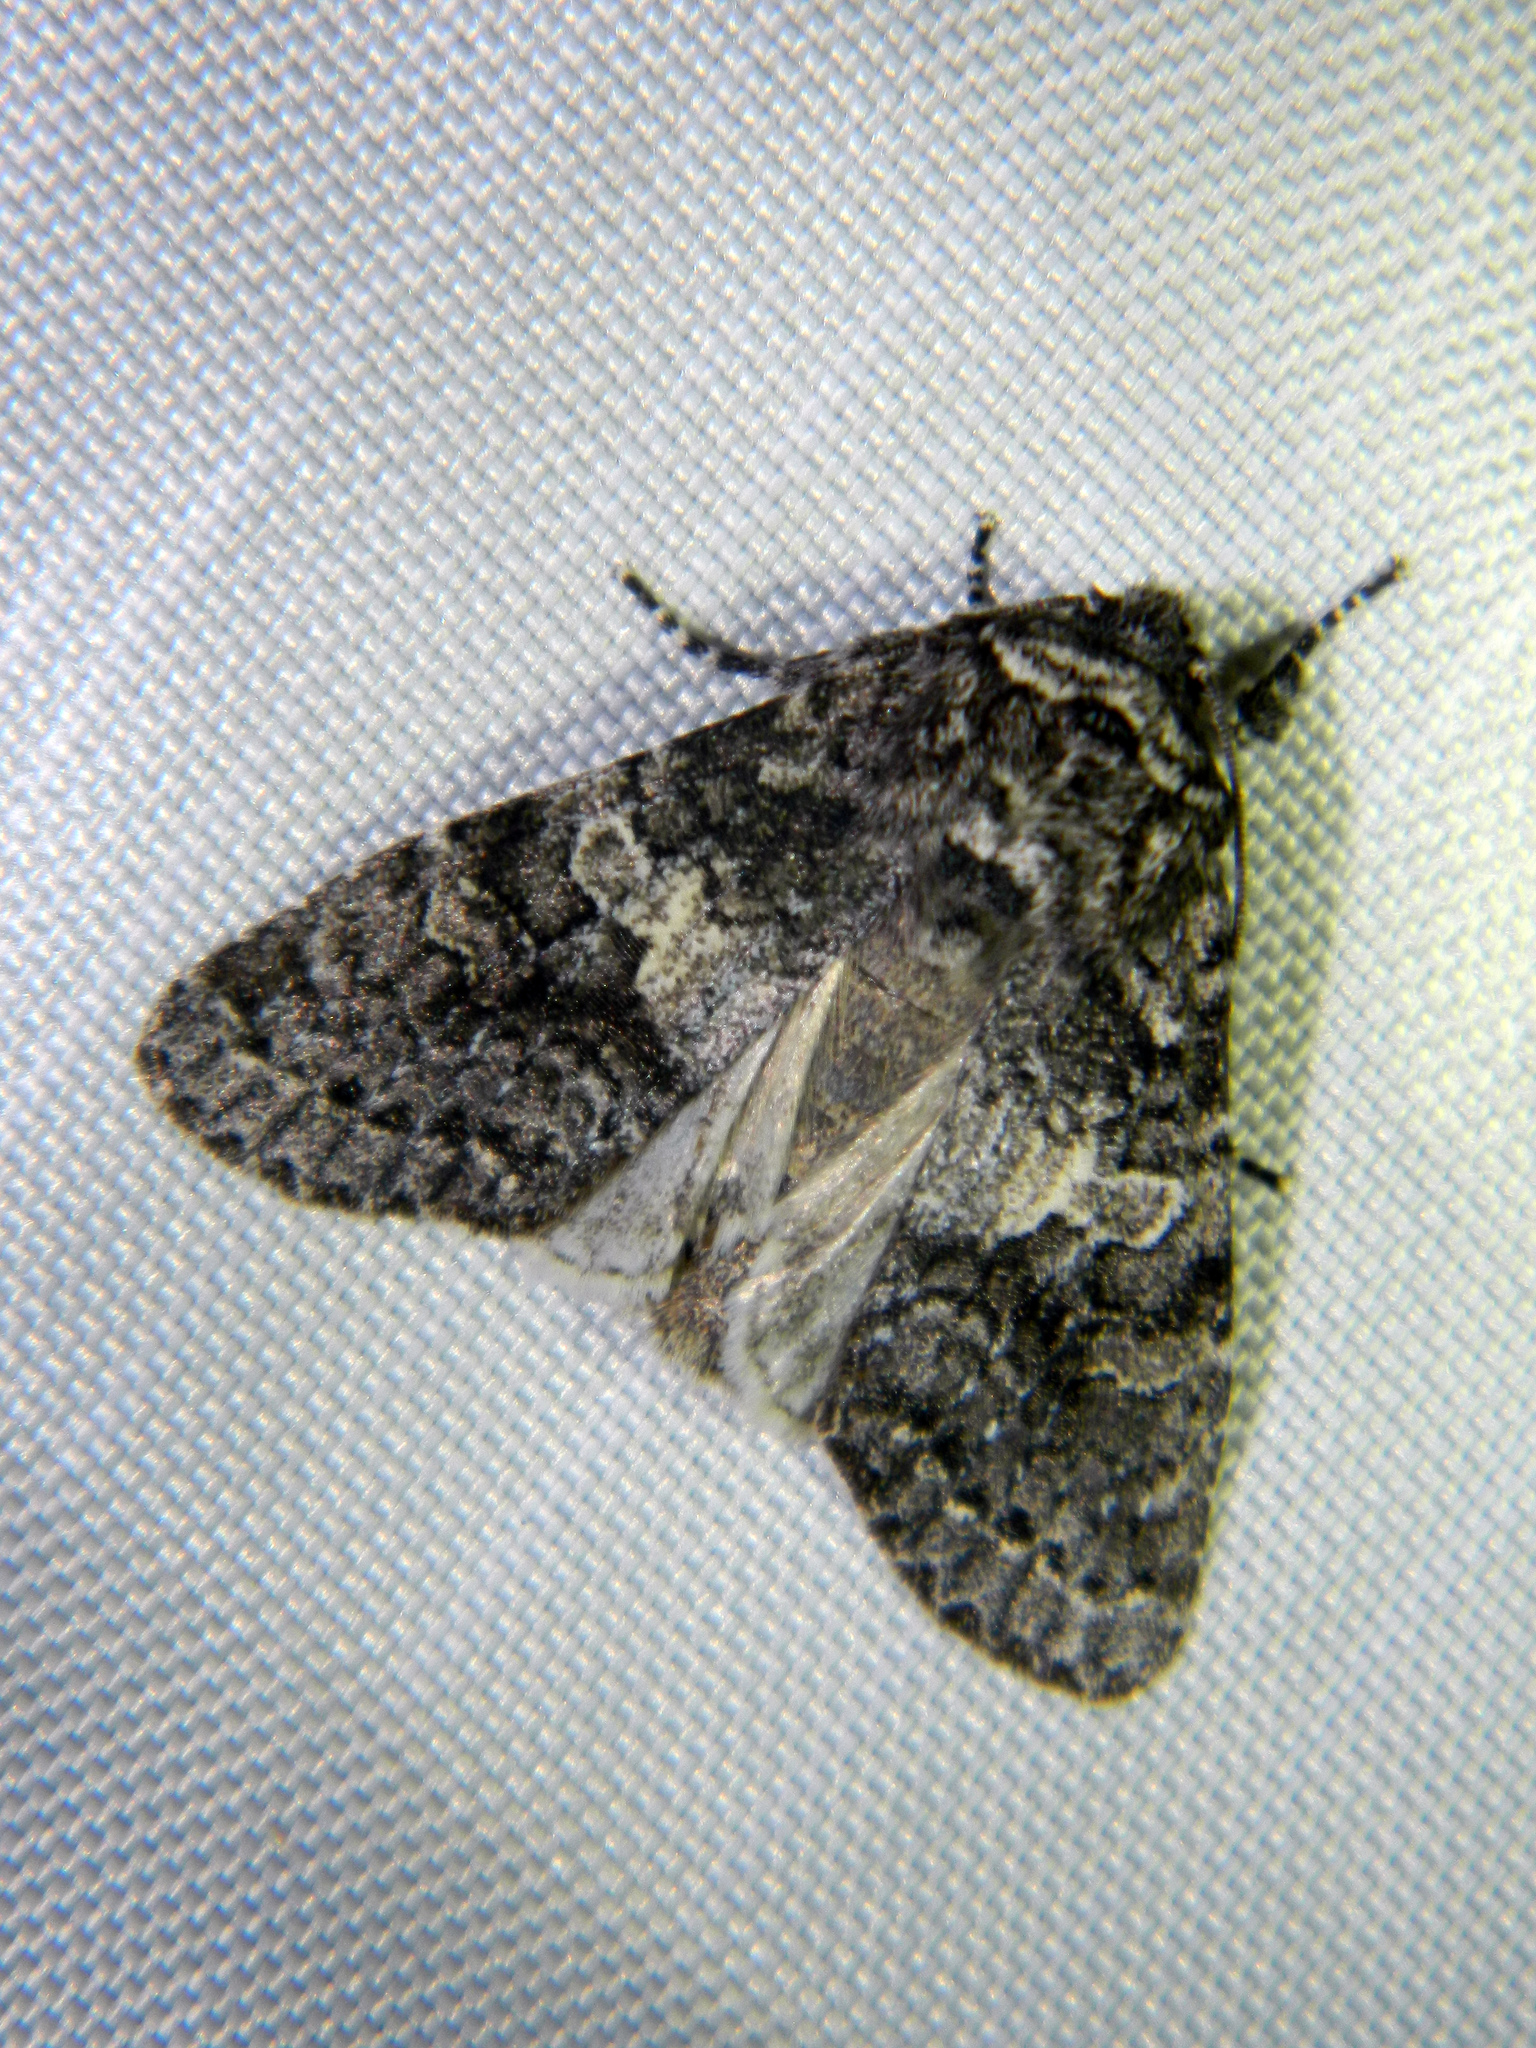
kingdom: Animalia
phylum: Arthropoda
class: Insecta
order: Lepidoptera
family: Noctuidae
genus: Egira
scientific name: Egira dolosa
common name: Lined black aspen cat.
